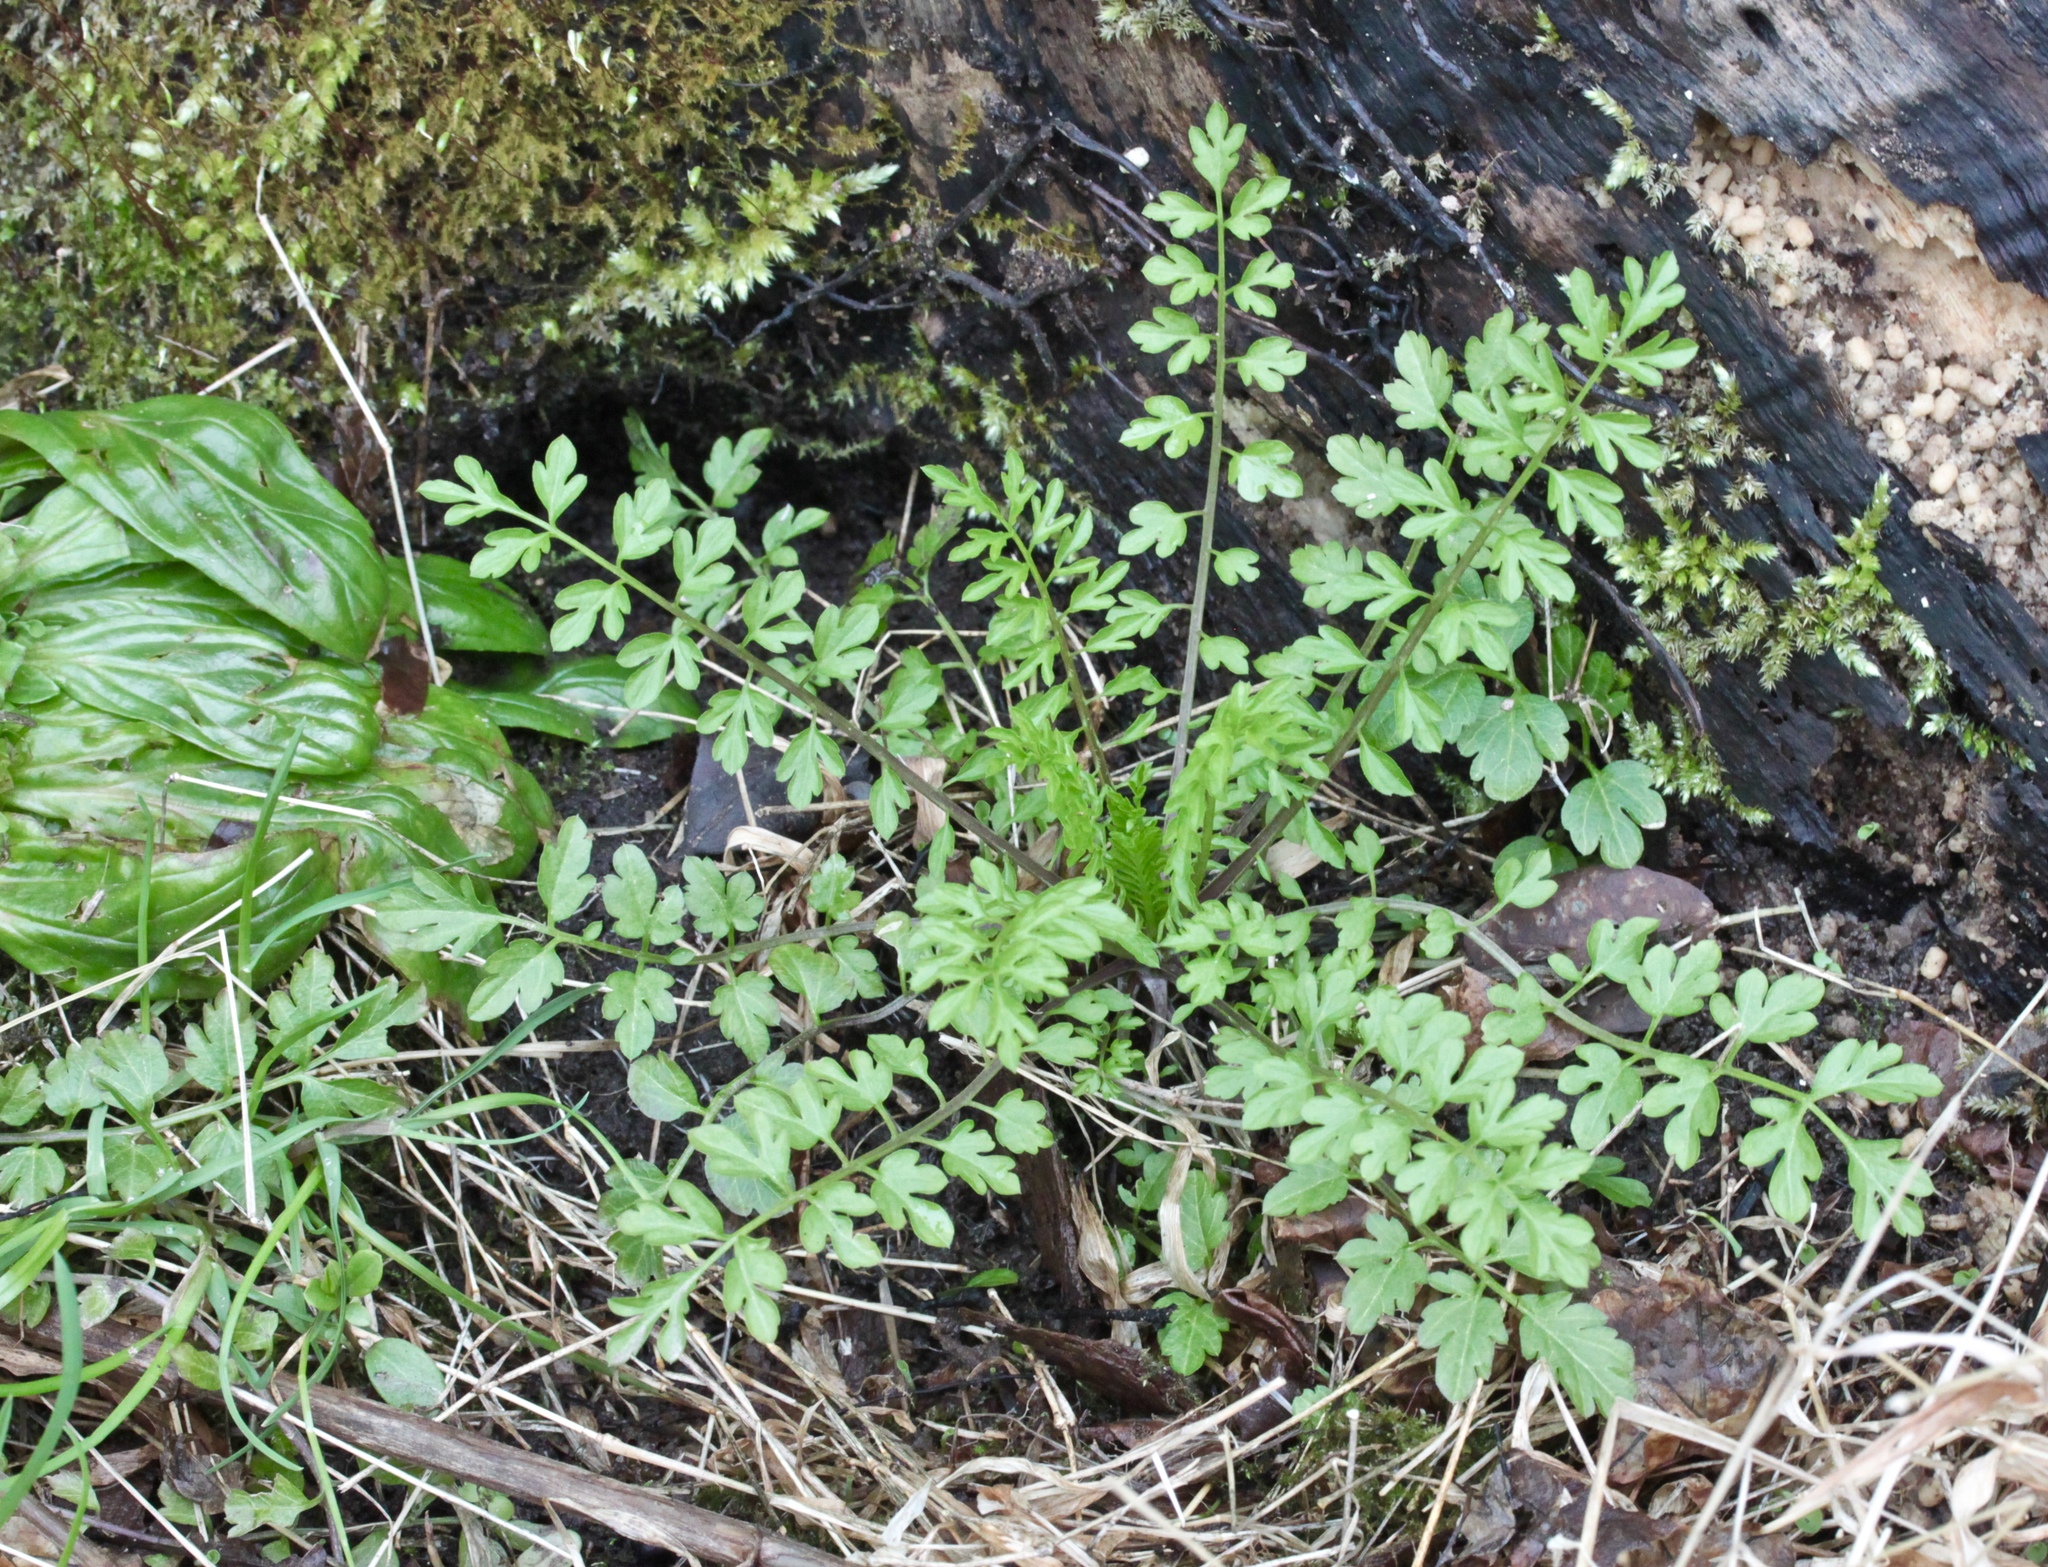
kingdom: Plantae
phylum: Tracheophyta
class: Magnoliopsida
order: Brassicales
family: Brassicaceae
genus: Cardamine
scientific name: Cardamine impatiens
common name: Narrow-leaved bitter-cress
